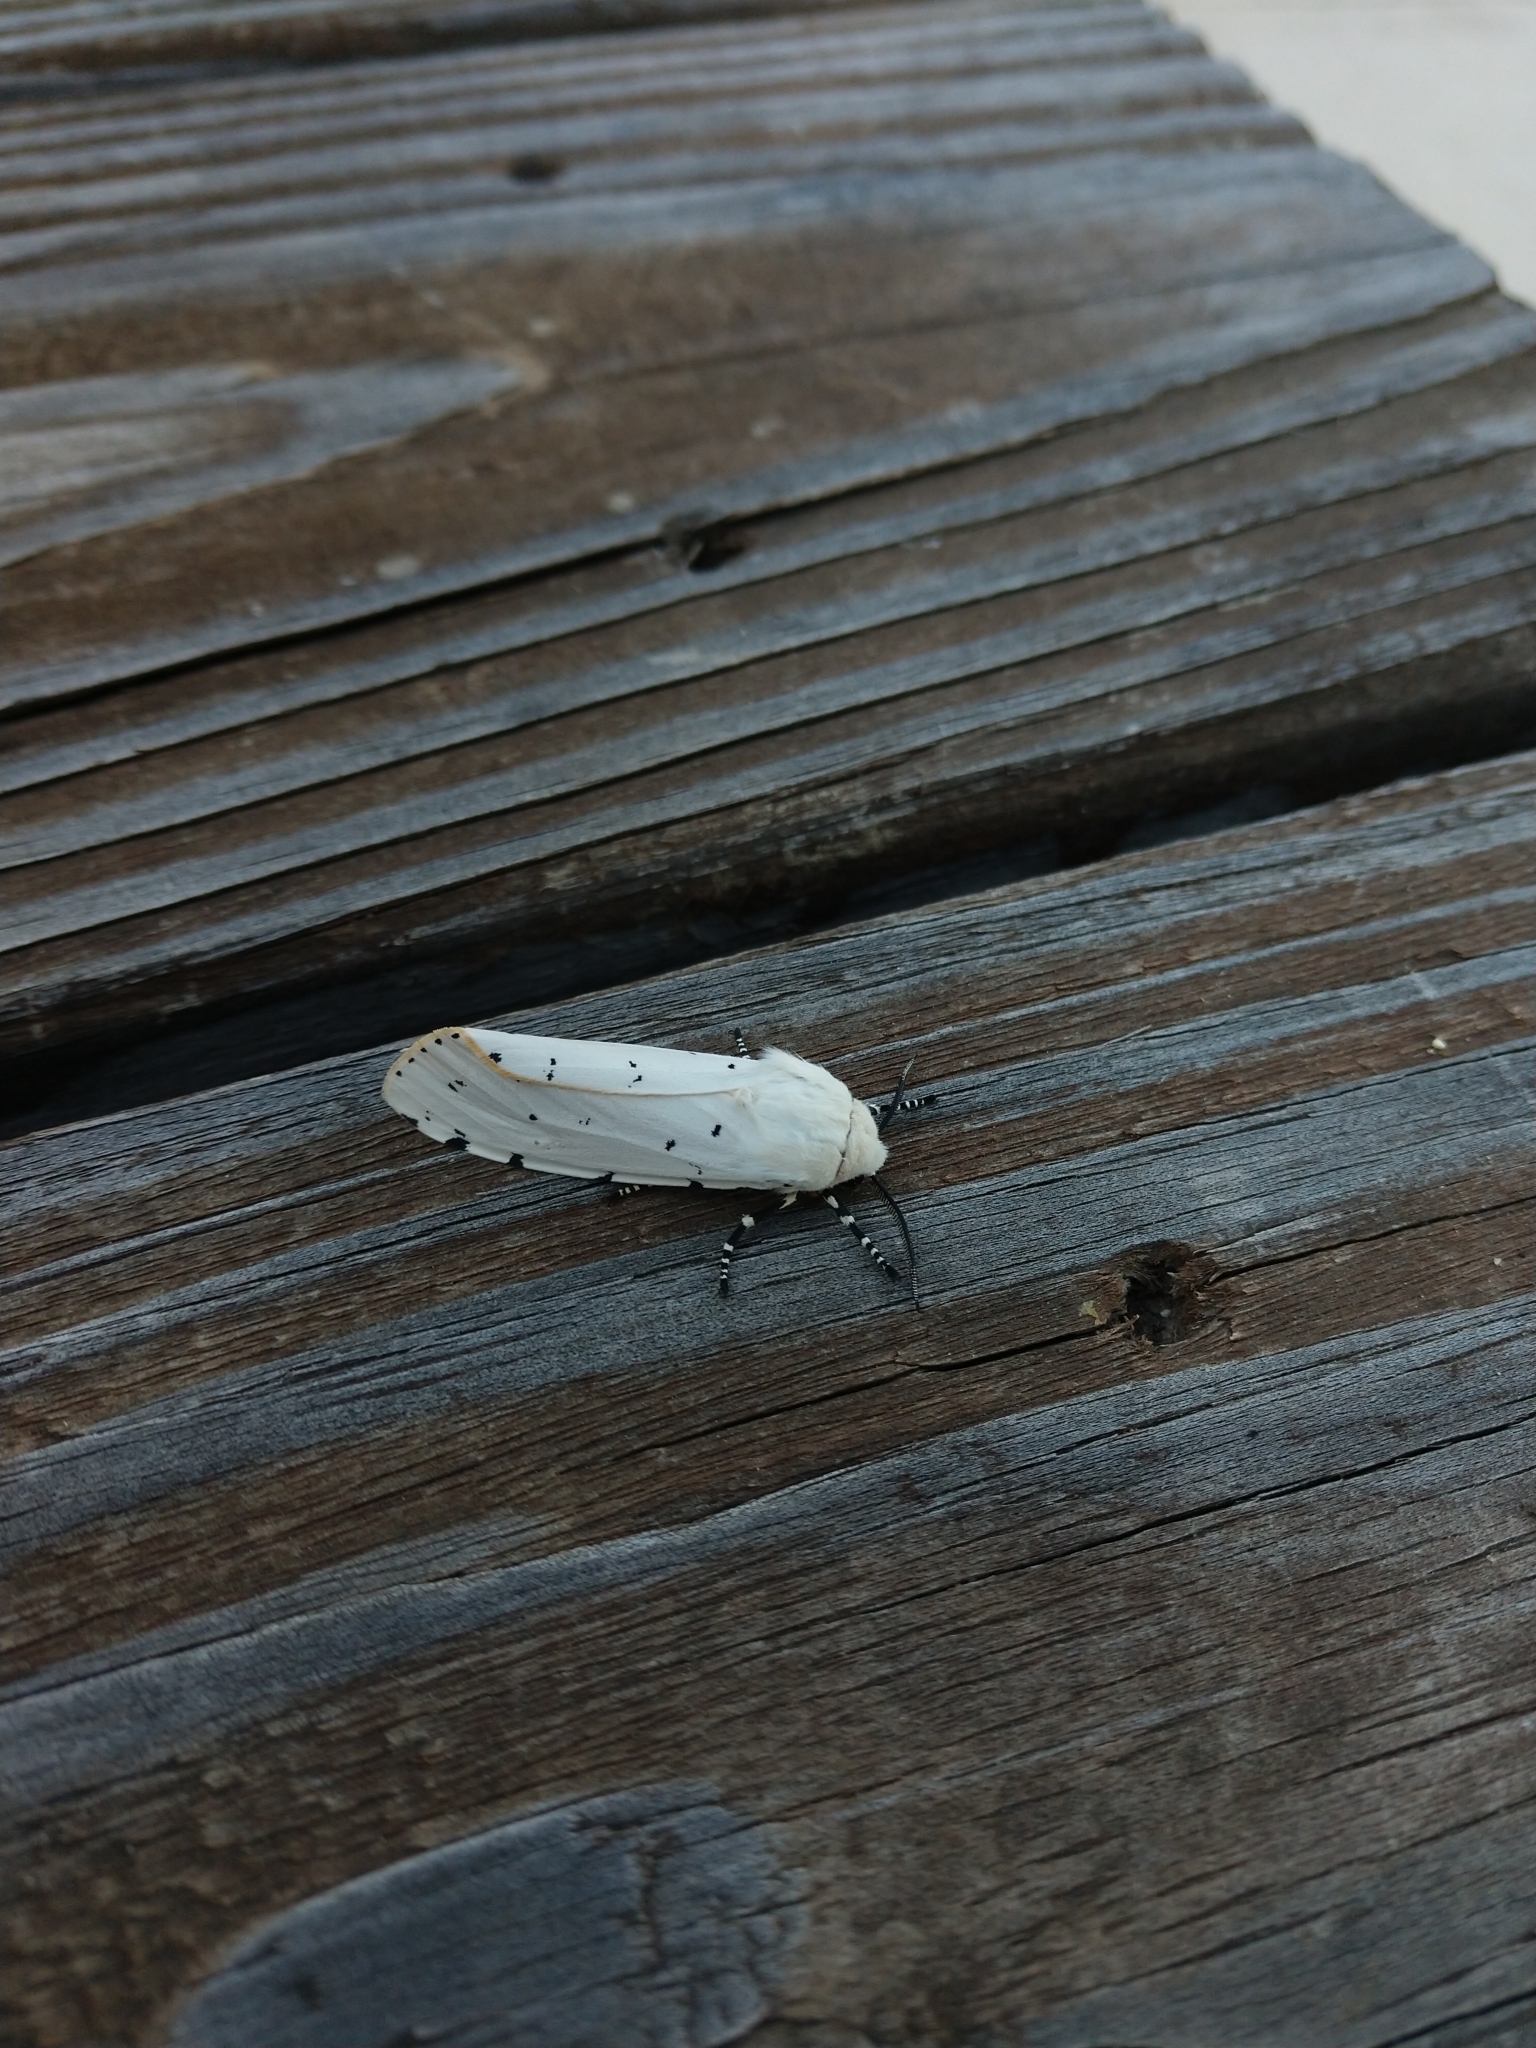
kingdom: Animalia
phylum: Arthropoda
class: Insecta
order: Lepidoptera
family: Erebidae
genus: Estigmene
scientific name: Estigmene acrea
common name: Salt marsh moth
